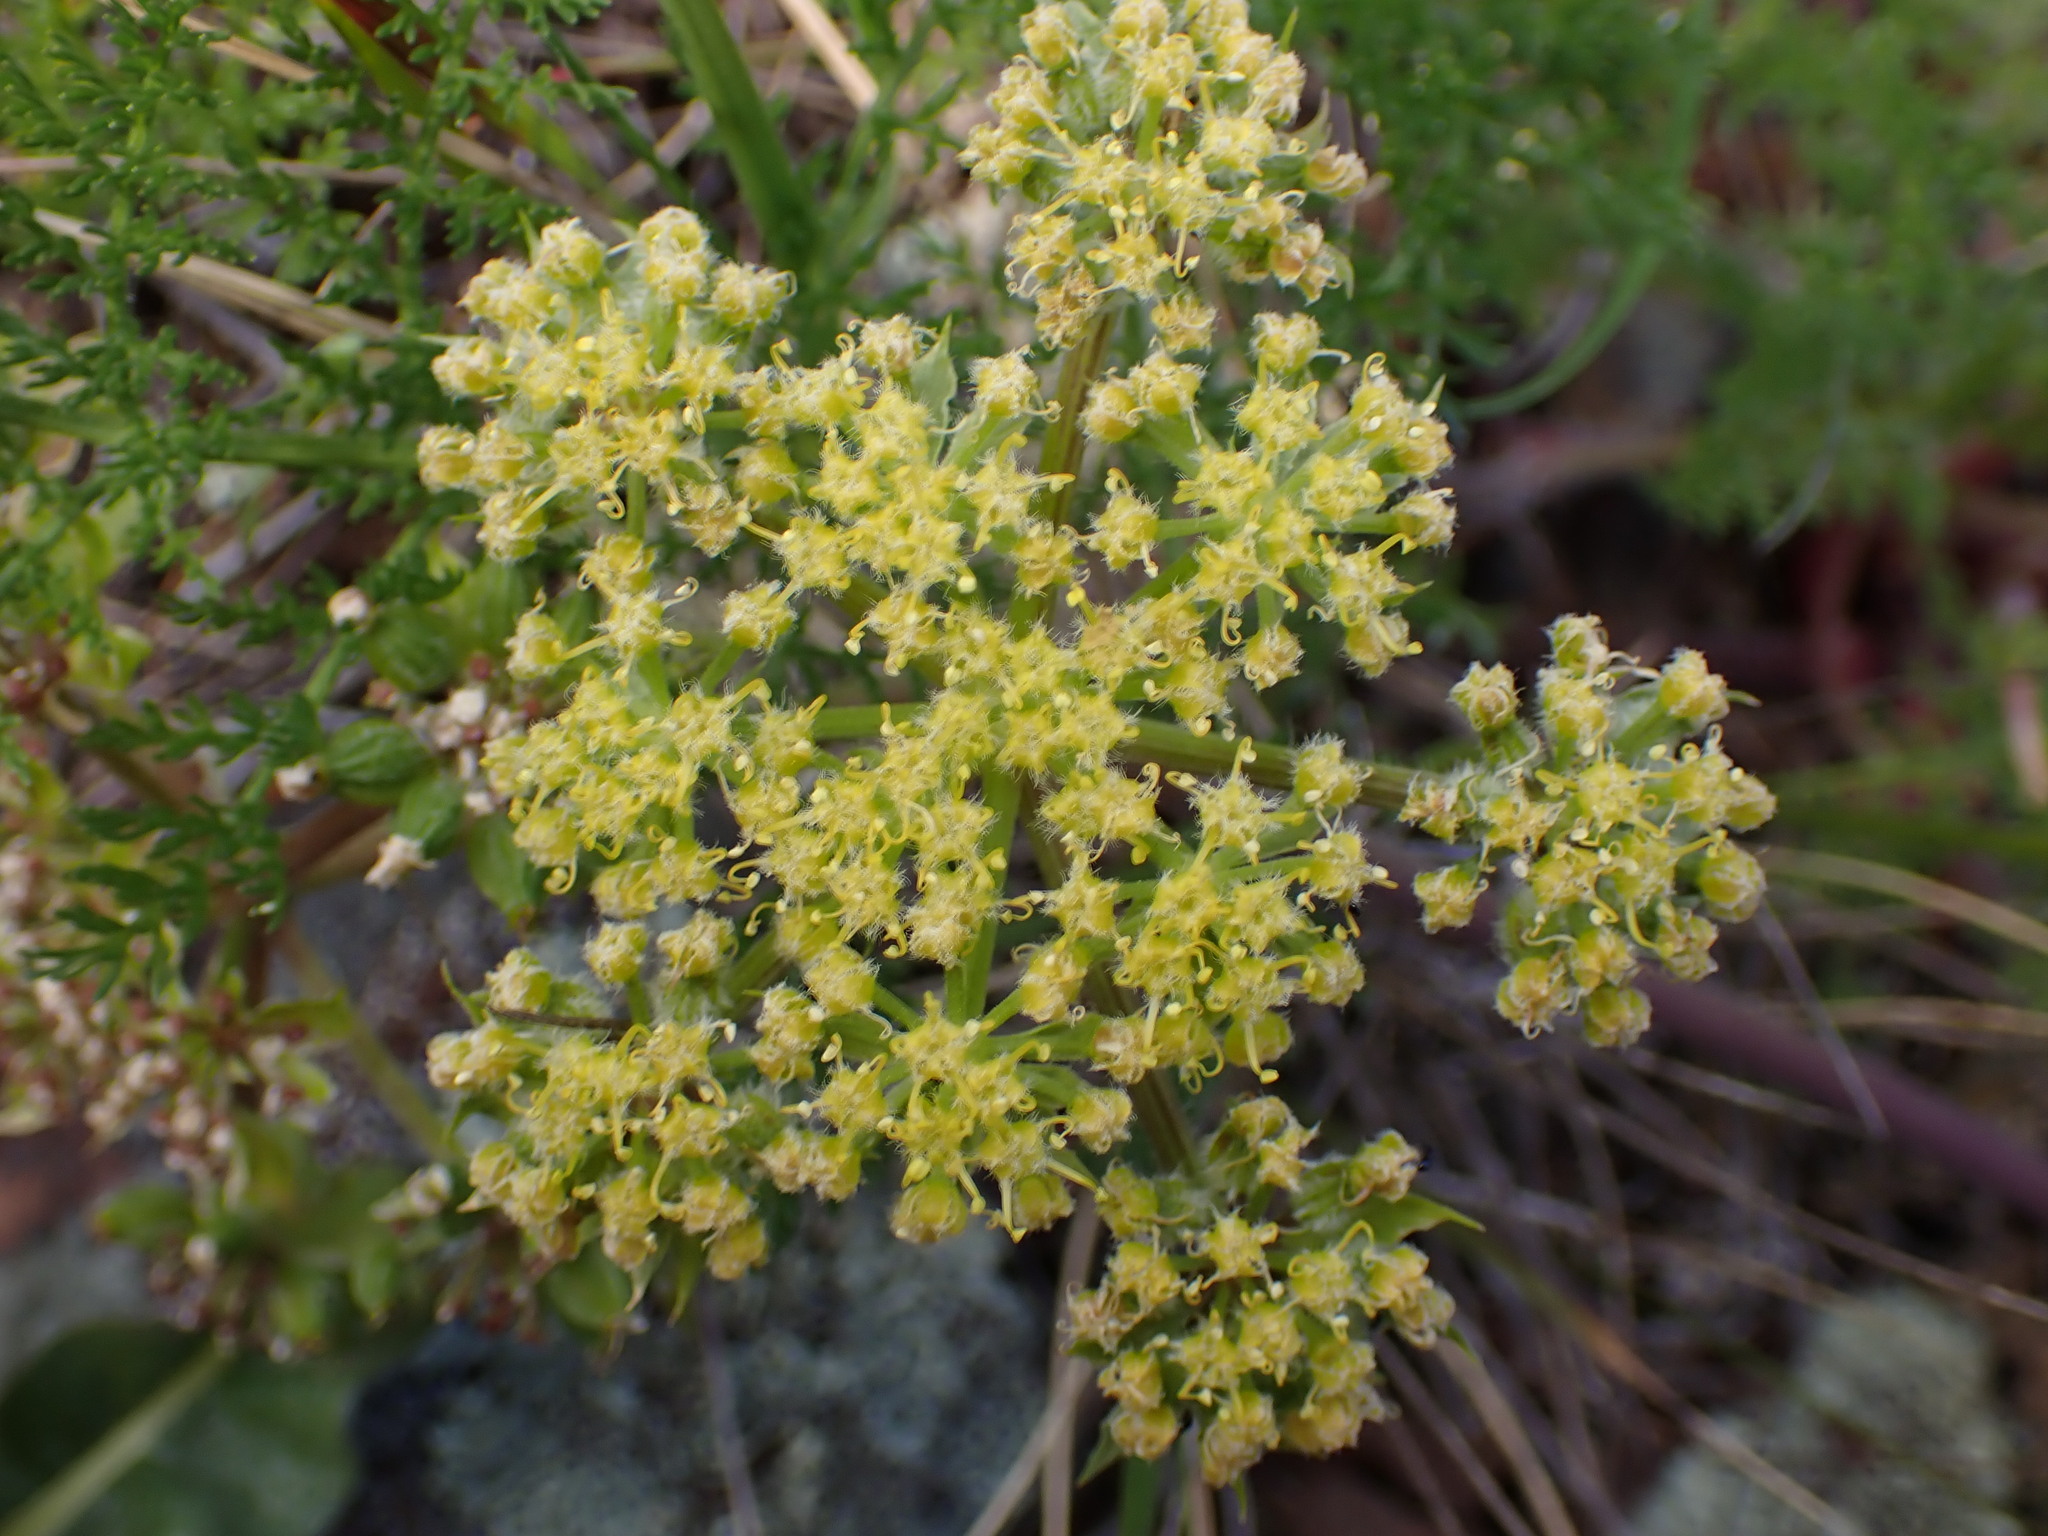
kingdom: Plantae
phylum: Tracheophyta
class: Magnoliopsida
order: Apiales
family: Apiaceae
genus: Lomatium
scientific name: Lomatium dasycarpum
